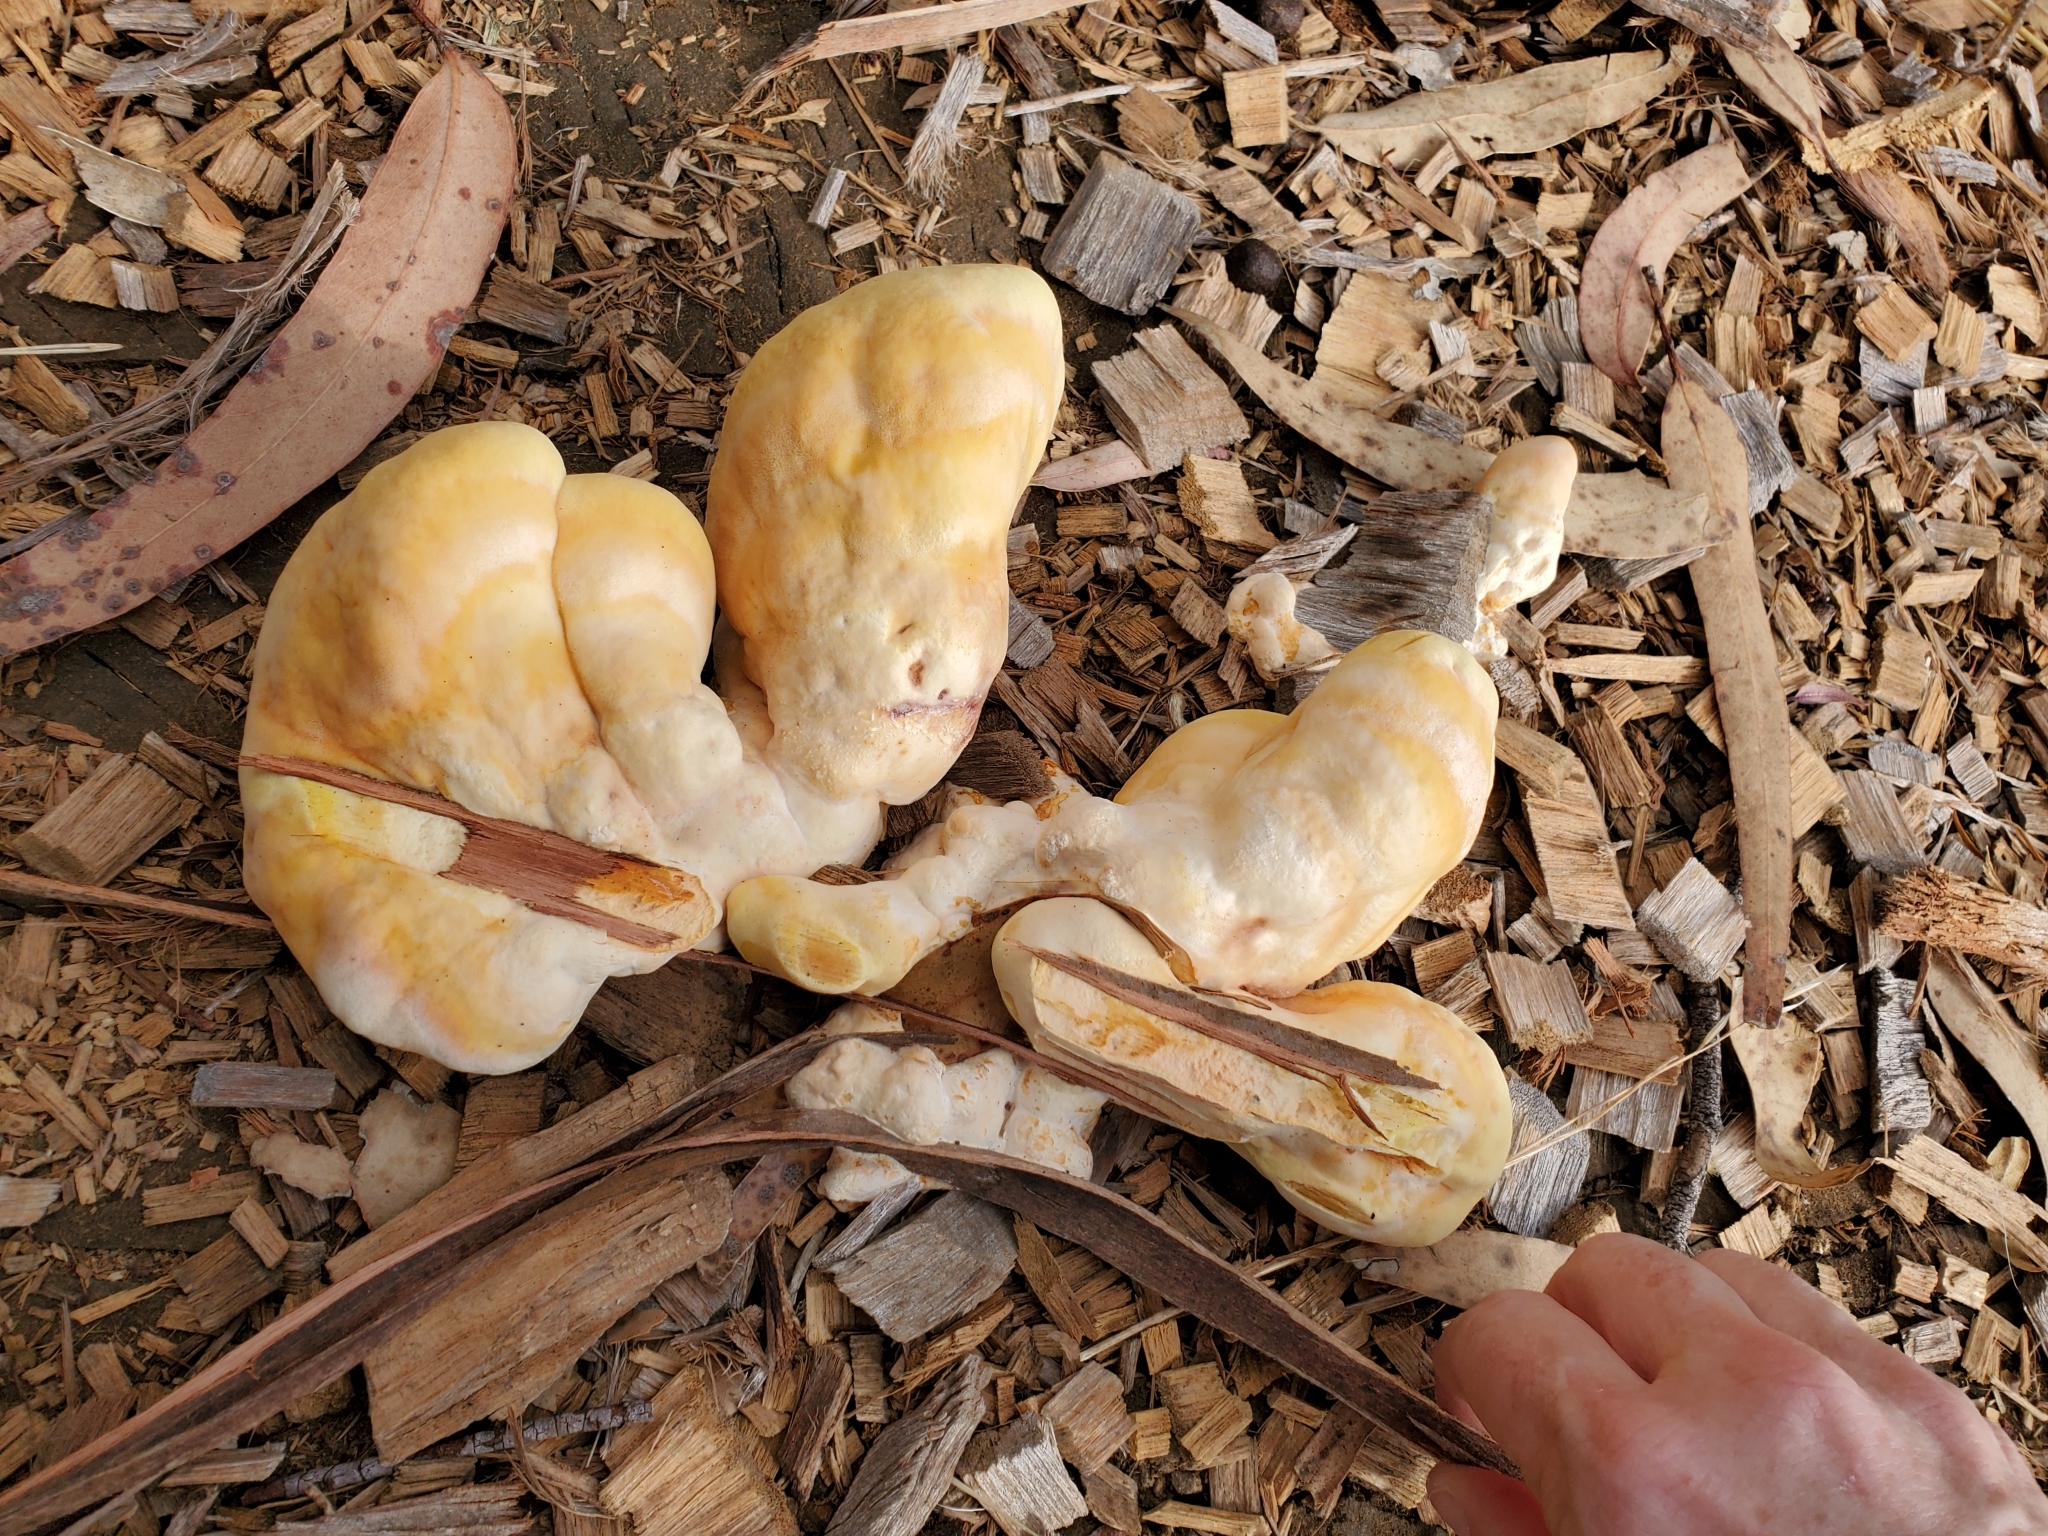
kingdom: Fungi
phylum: Basidiomycota
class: Agaricomycetes
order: Polyporales
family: Laetiporaceae
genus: Laetiporus
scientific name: Laetiporus gilbertsonii
